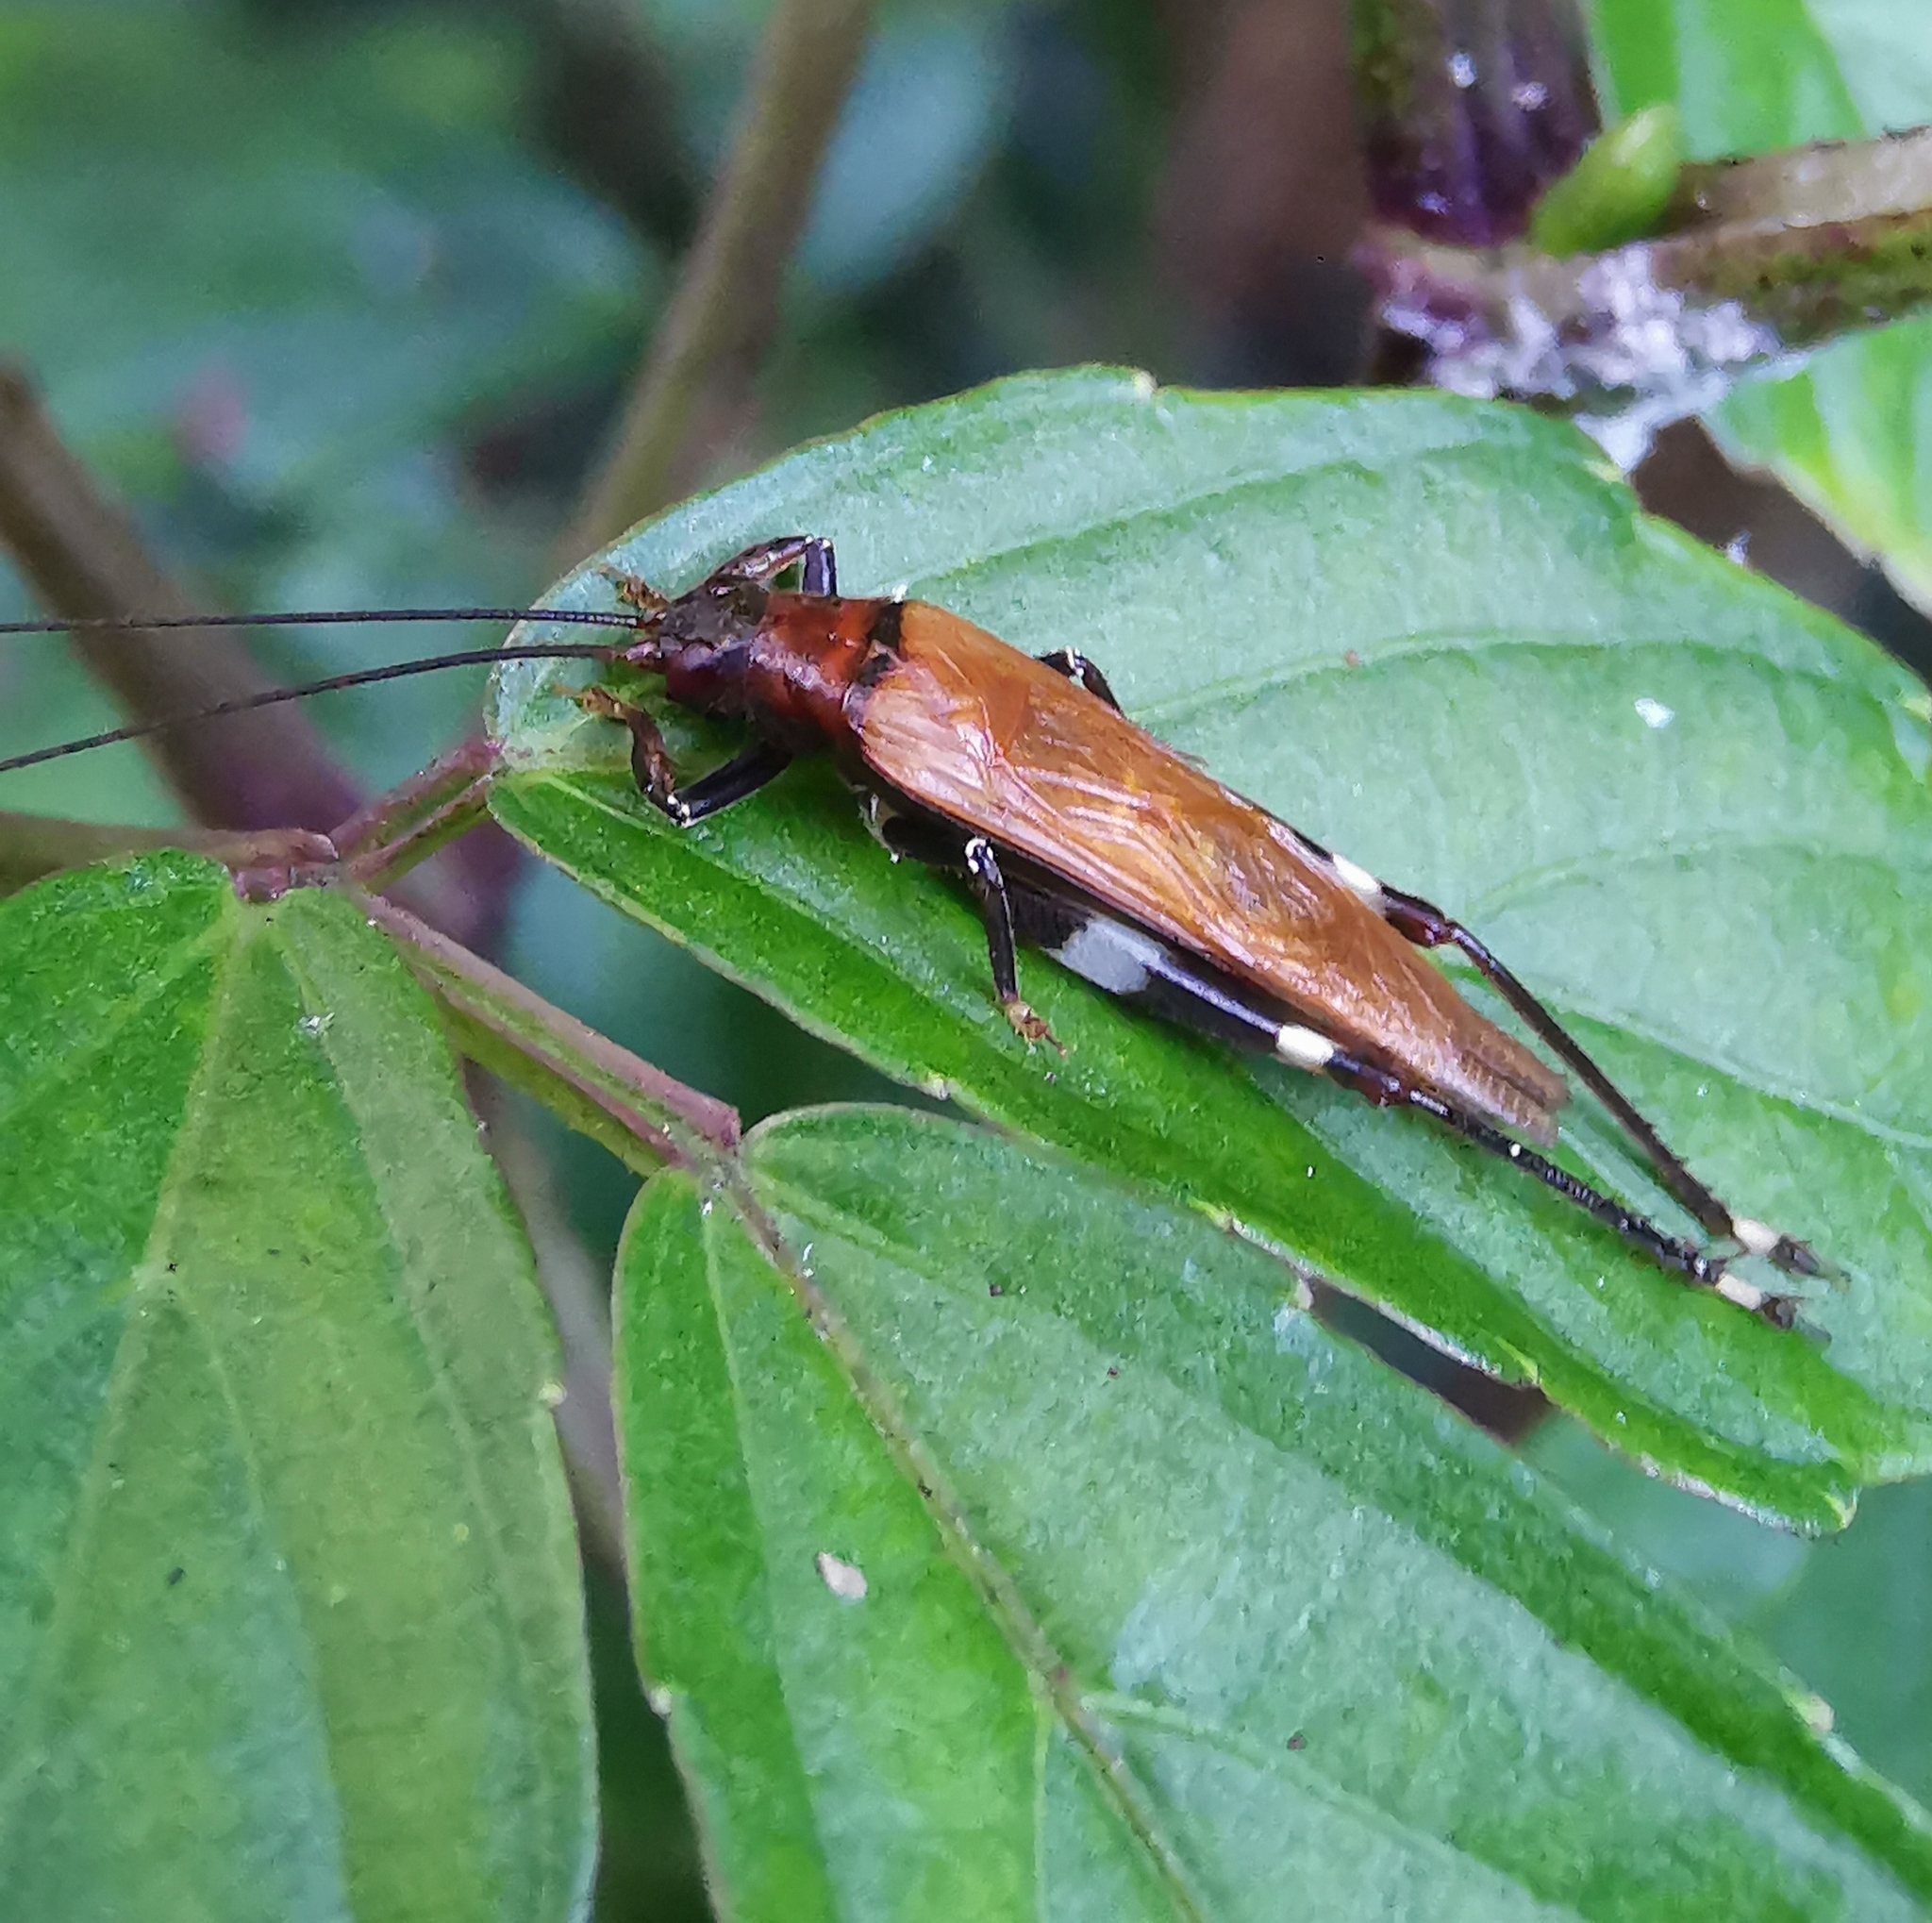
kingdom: Animalia
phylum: Arthropoda
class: Insecta
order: Orthoptera
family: Gryllidae
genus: Mnesibulus
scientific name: Mnesibulus bicolor
